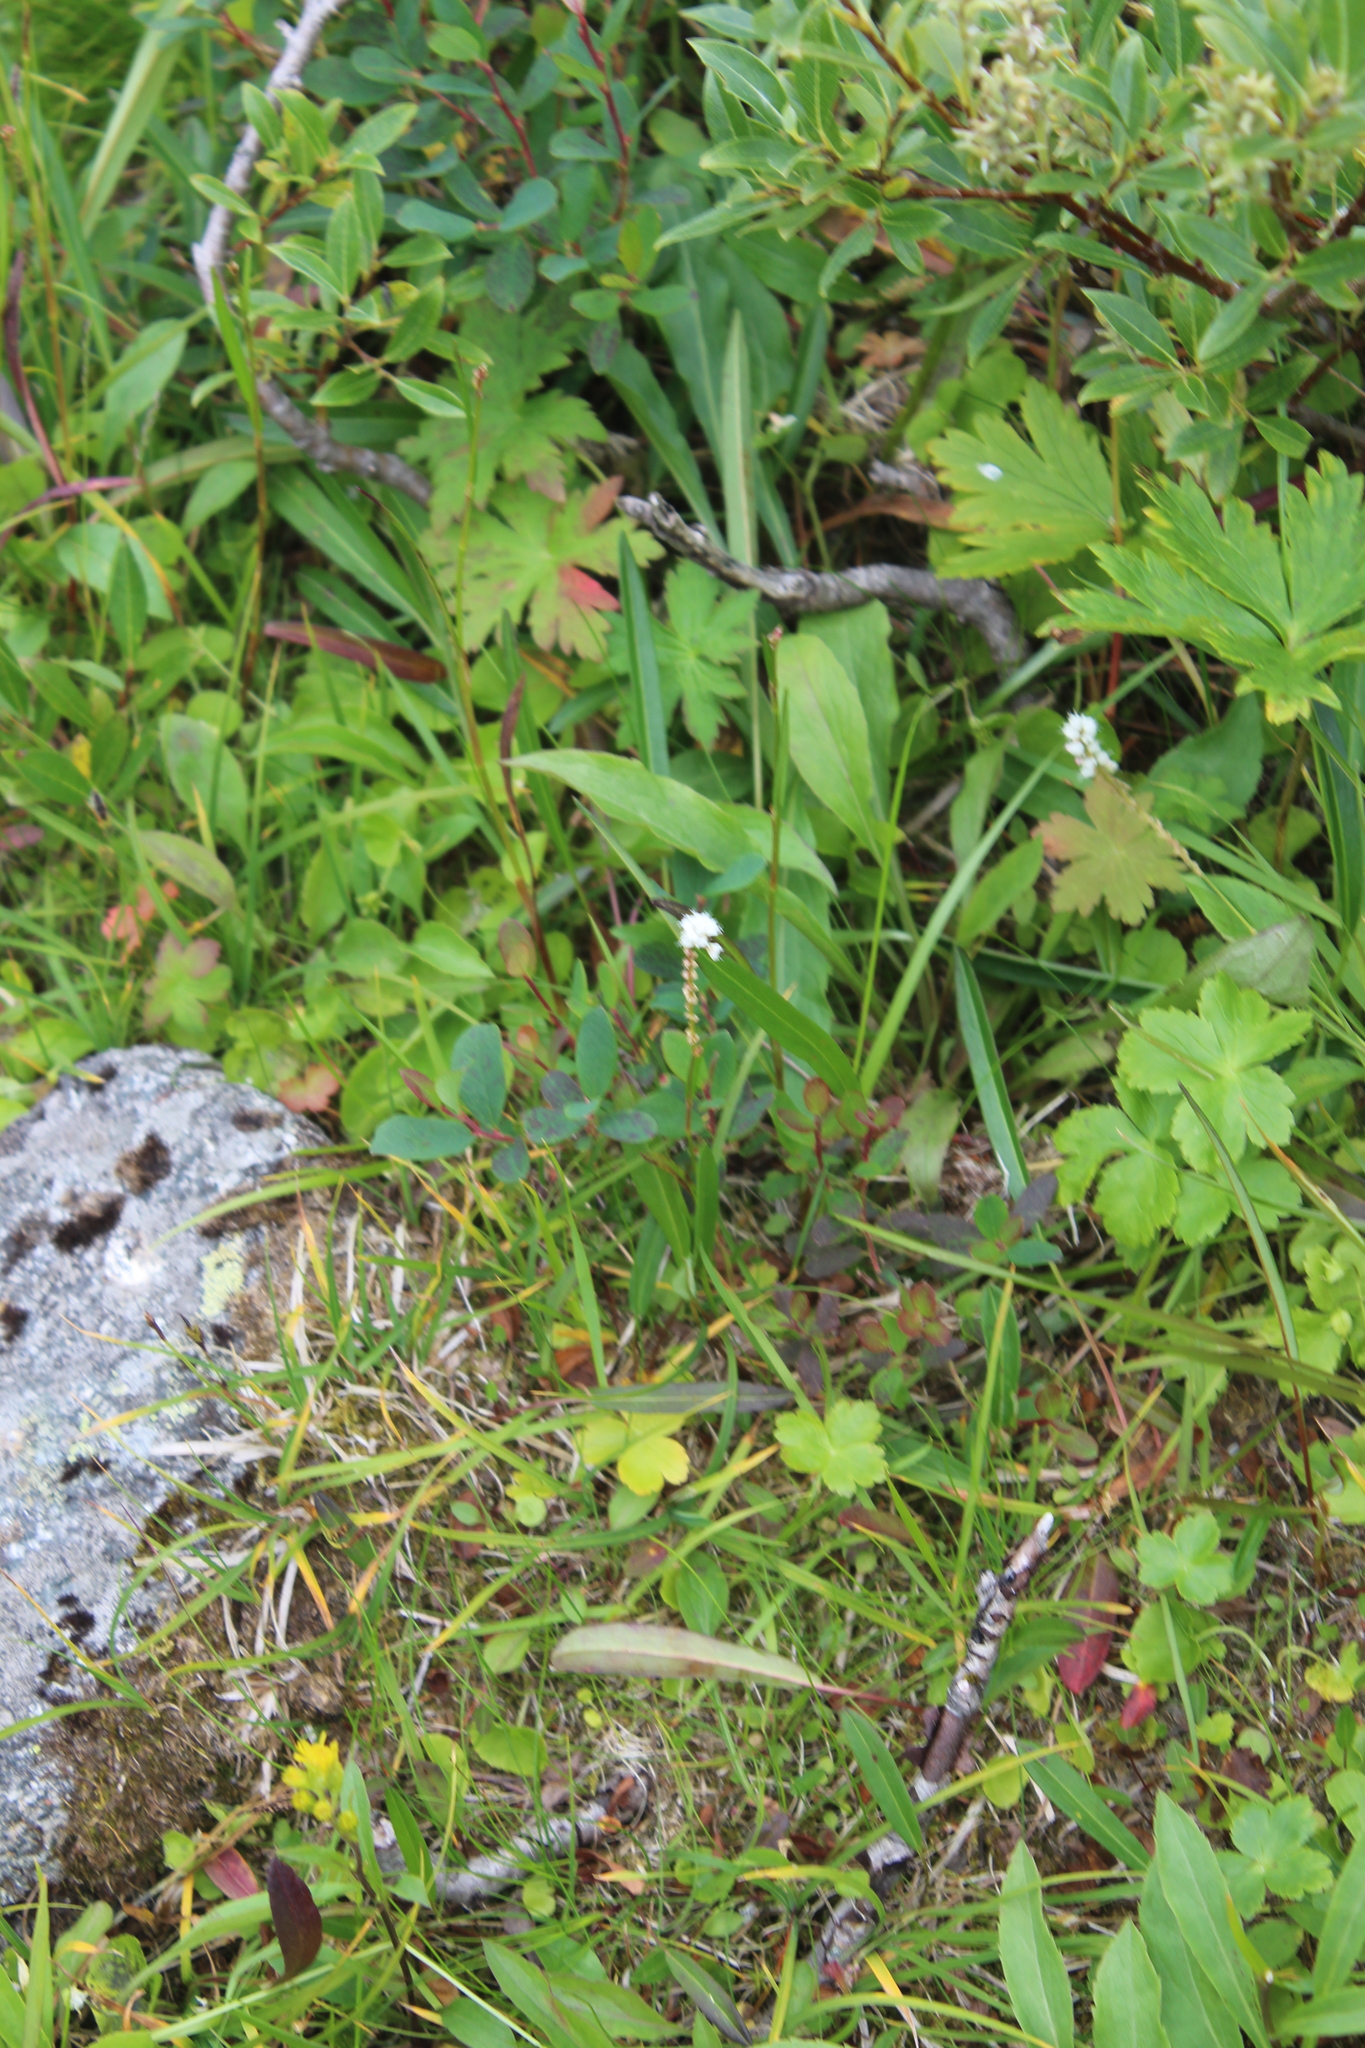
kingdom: Plantae
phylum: Tracheophyta
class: Magnoliopsida
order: Caryophyllales
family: Polygonaceae
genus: Bistorta
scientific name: Bistorta vivipara
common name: Alpine bistort
